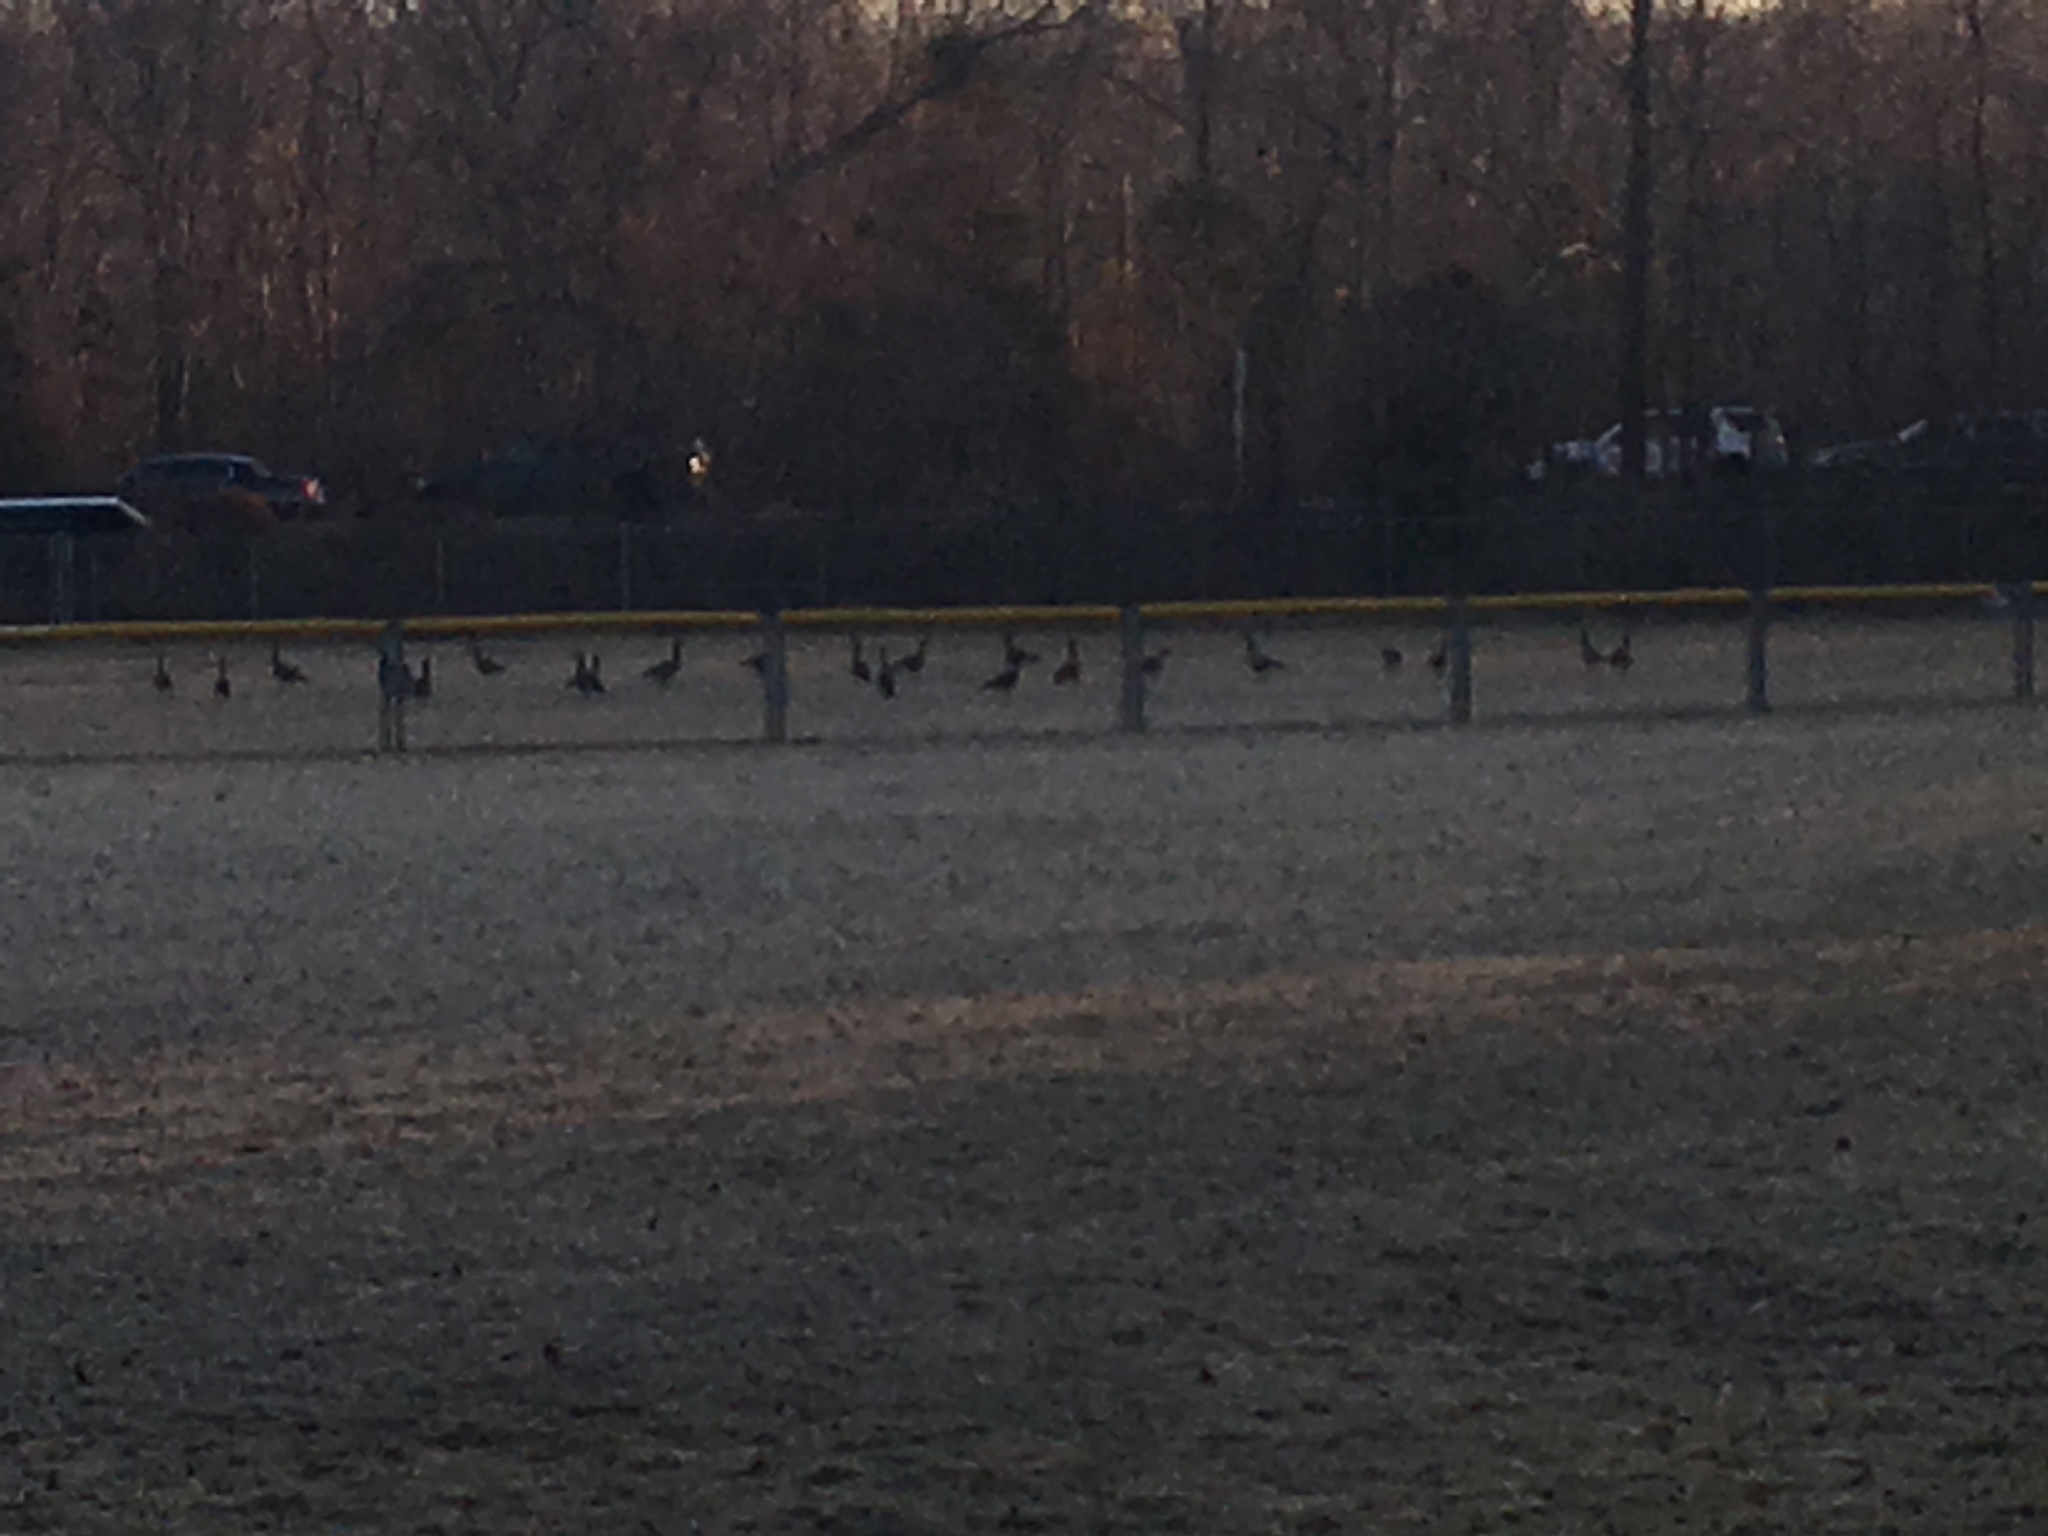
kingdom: Animalia
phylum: Chordata
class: Aves
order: Anseriformes
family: Anatidae
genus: Branta
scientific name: Branta canadensis
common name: Canada goose
